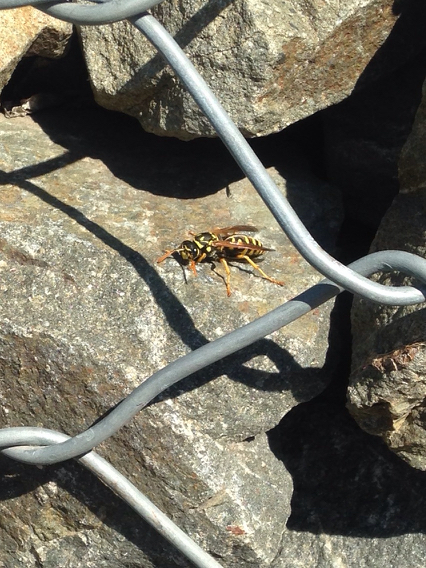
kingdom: Animalia
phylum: Arthropoda
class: Insecta
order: Hymenoptera
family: Eumenidae
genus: Polistes
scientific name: Polistes dominula
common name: Paper wasp
